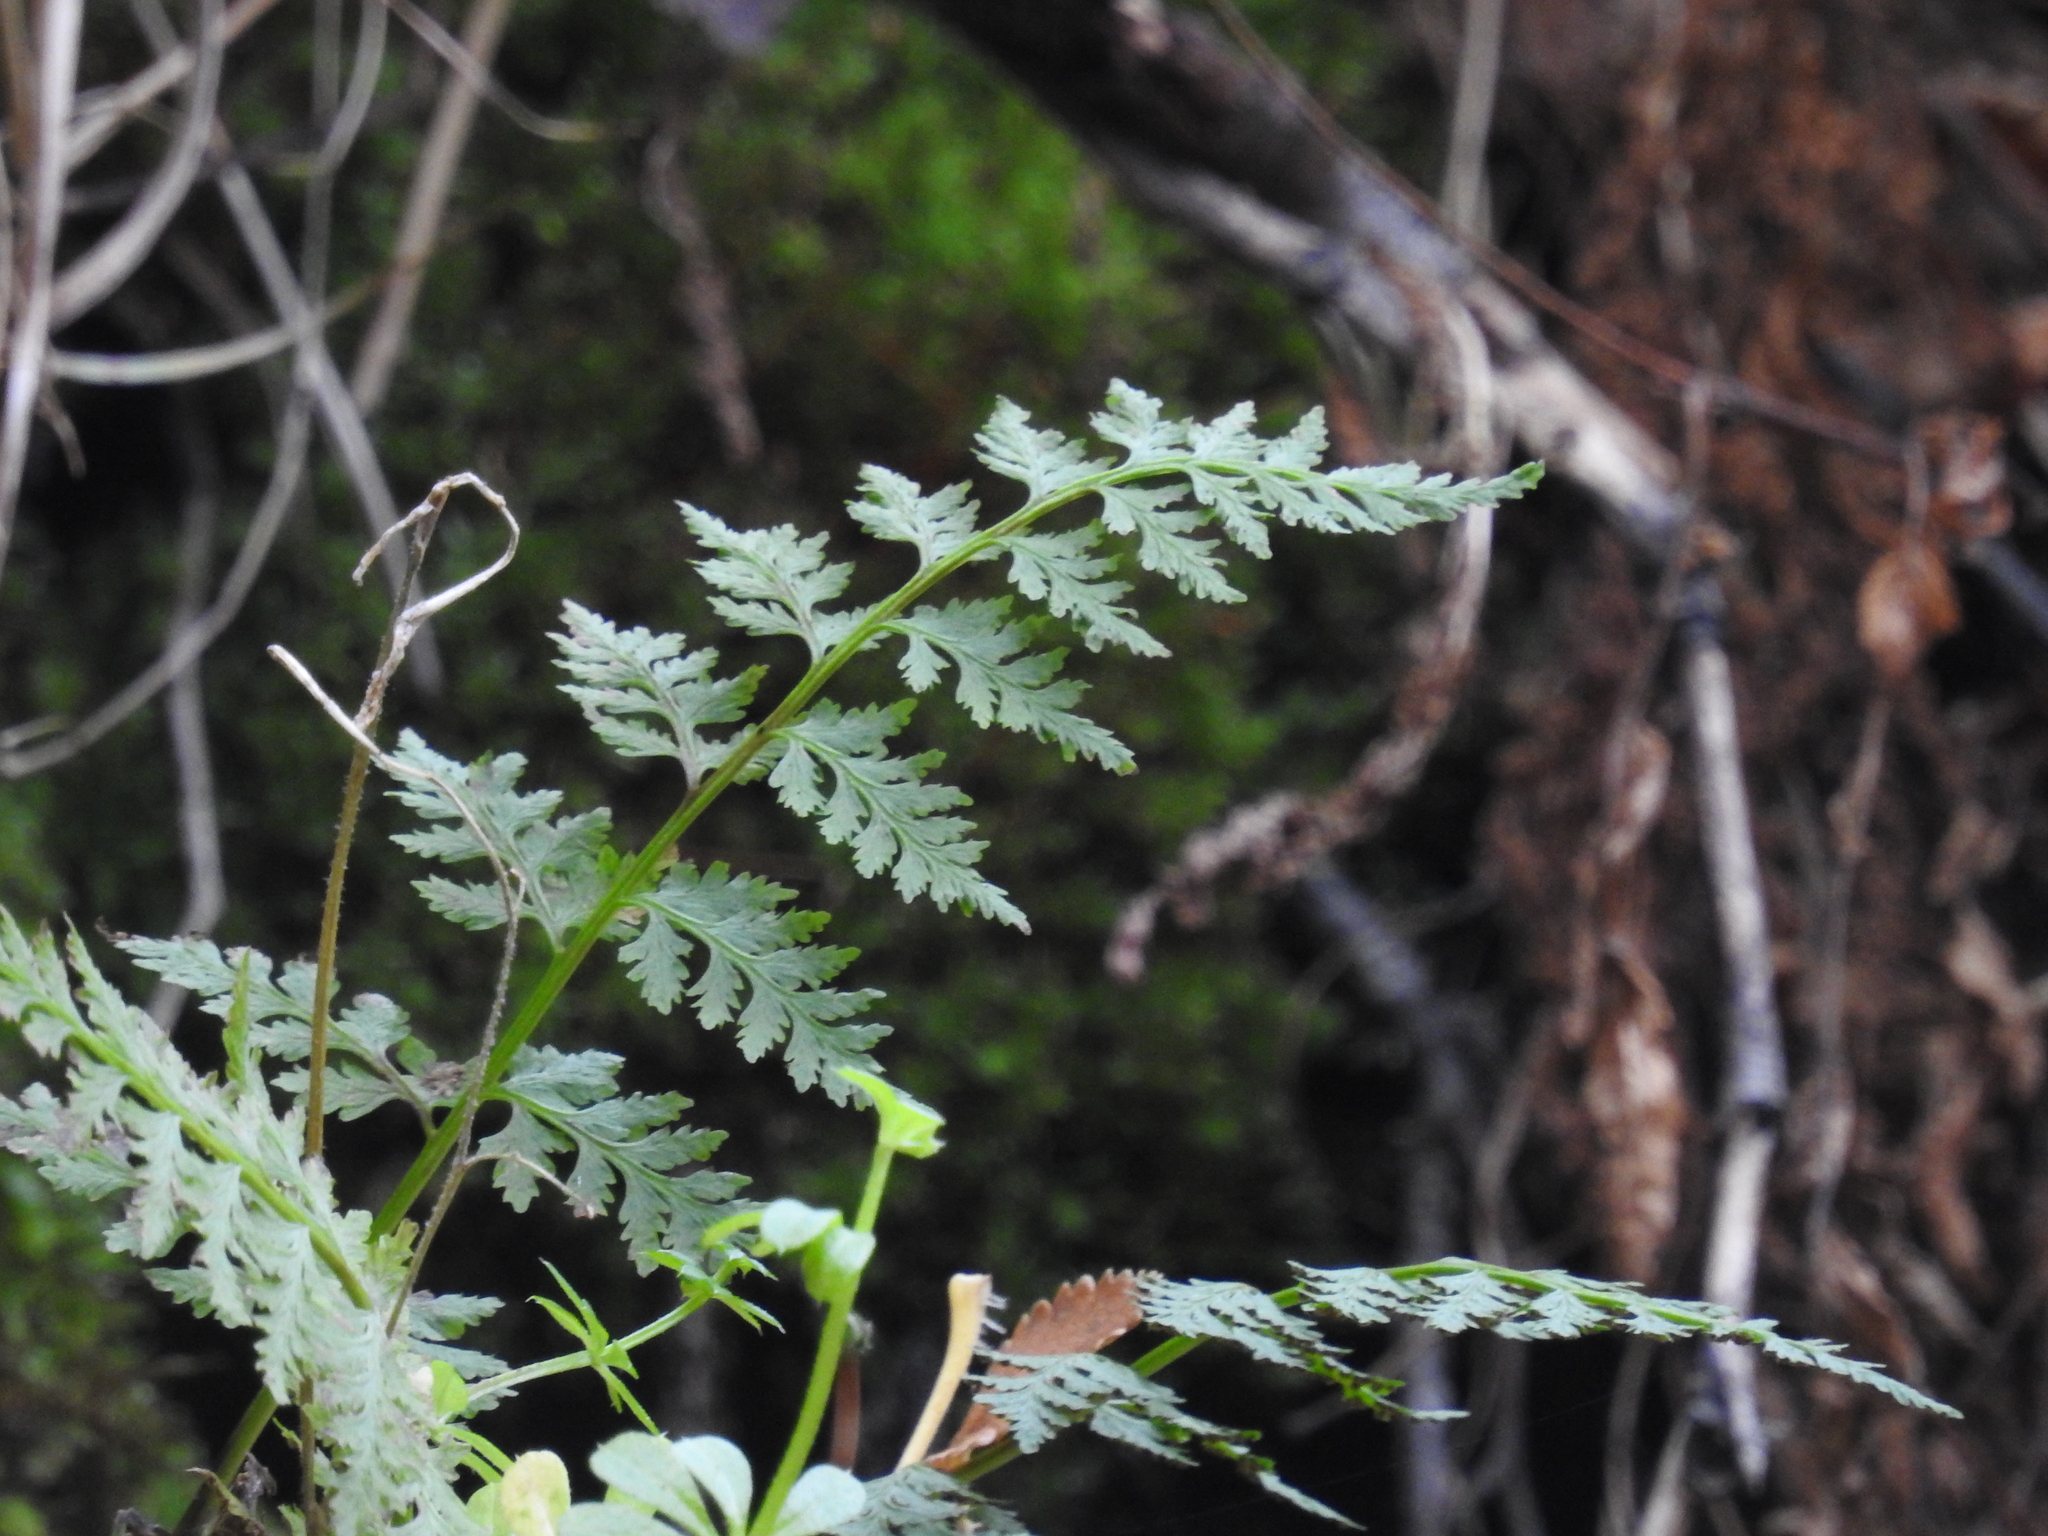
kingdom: Plantae
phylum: Tracheophyta
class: Polypodiopsida
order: Polypodiales
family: Aspleniaceae
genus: Asplenium
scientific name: Asplenium dareoides
